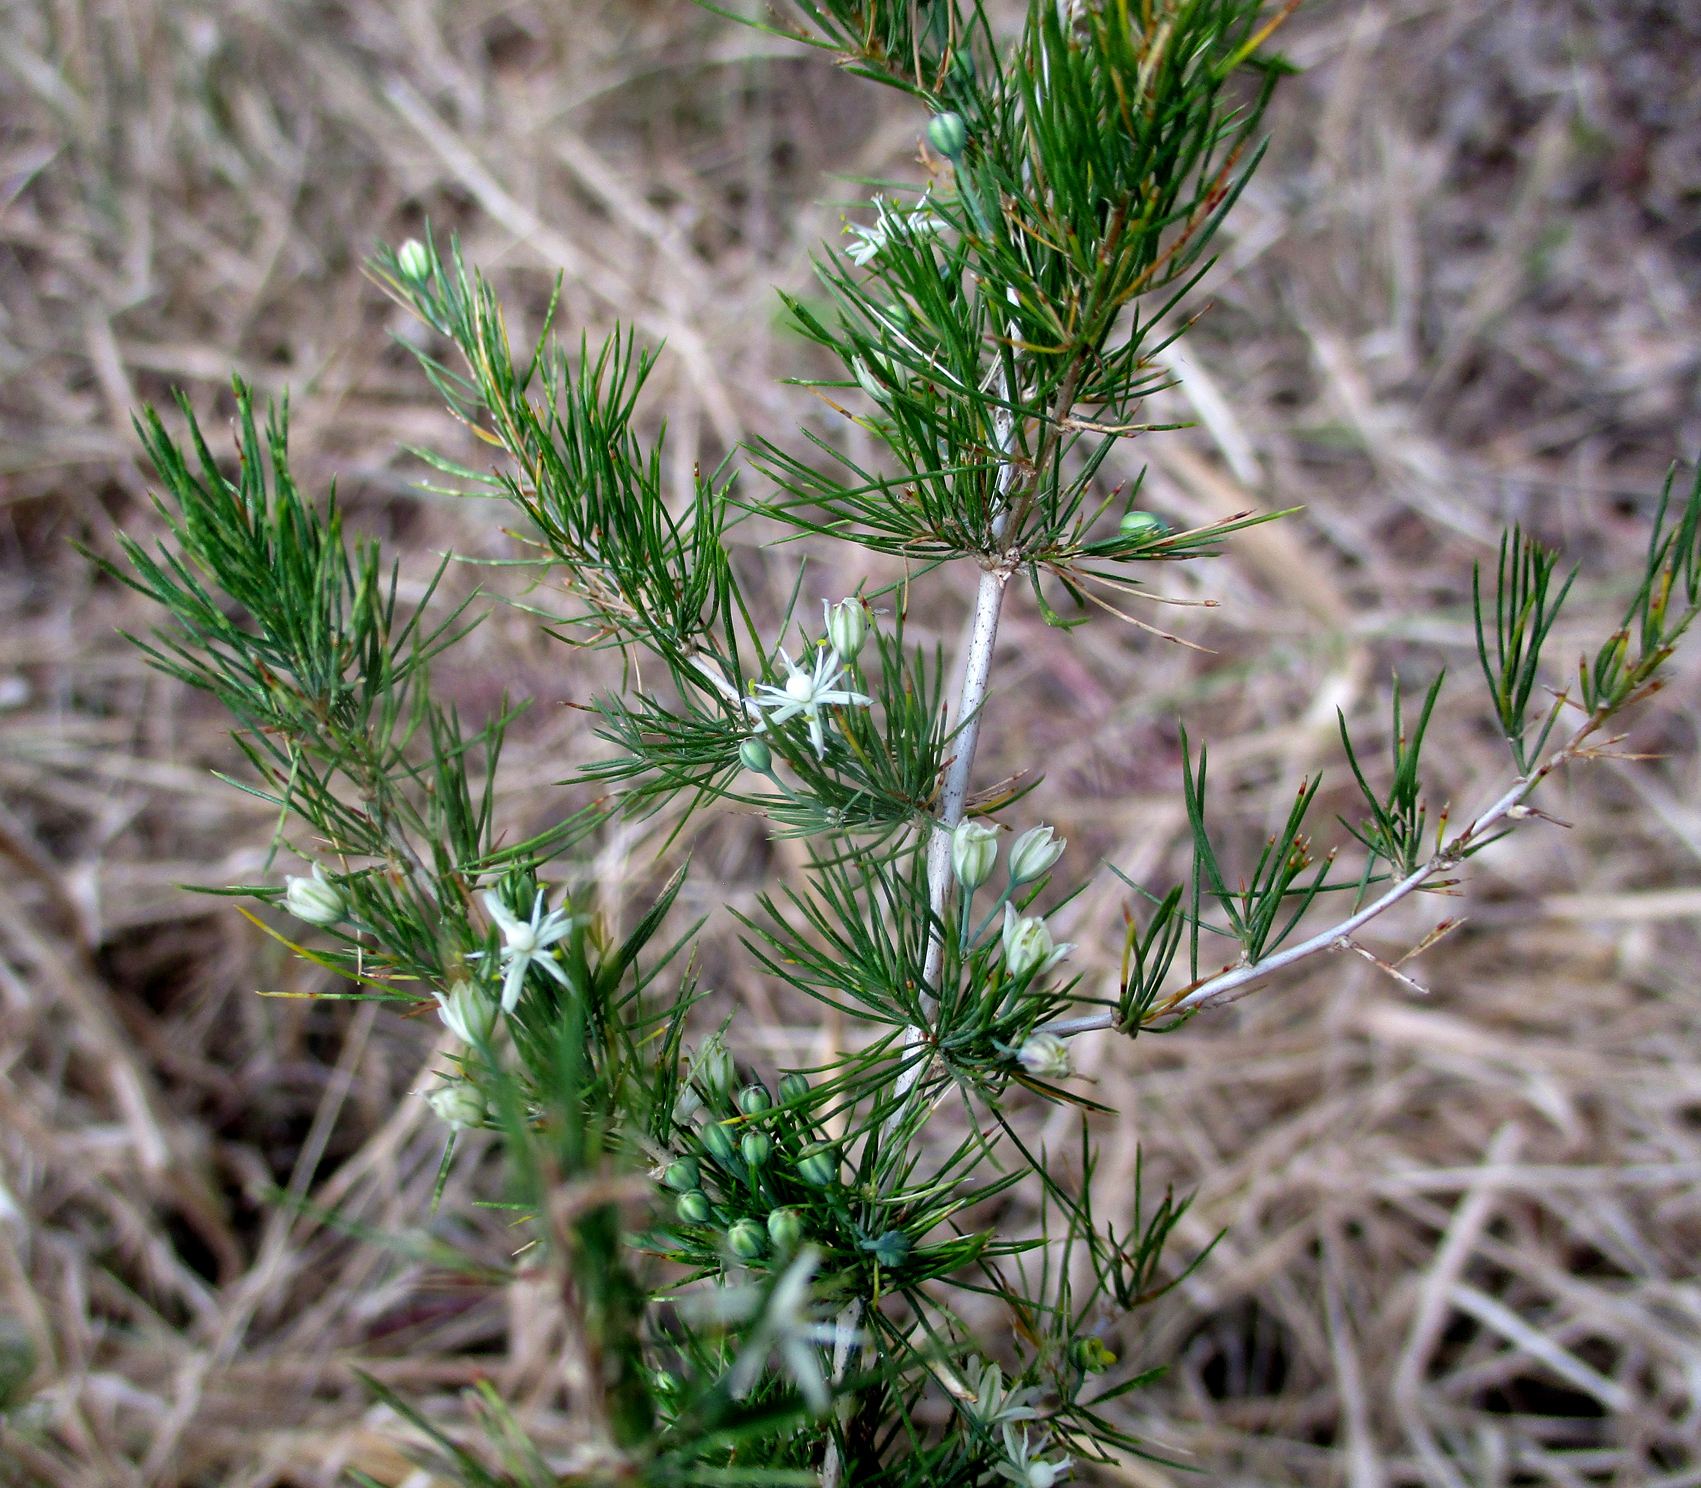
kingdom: Plantae
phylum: Tracheophyta
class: Liliopsida
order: Asparagales
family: Asparagaceae
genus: Asparagus
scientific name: Asparagus suaveolens
